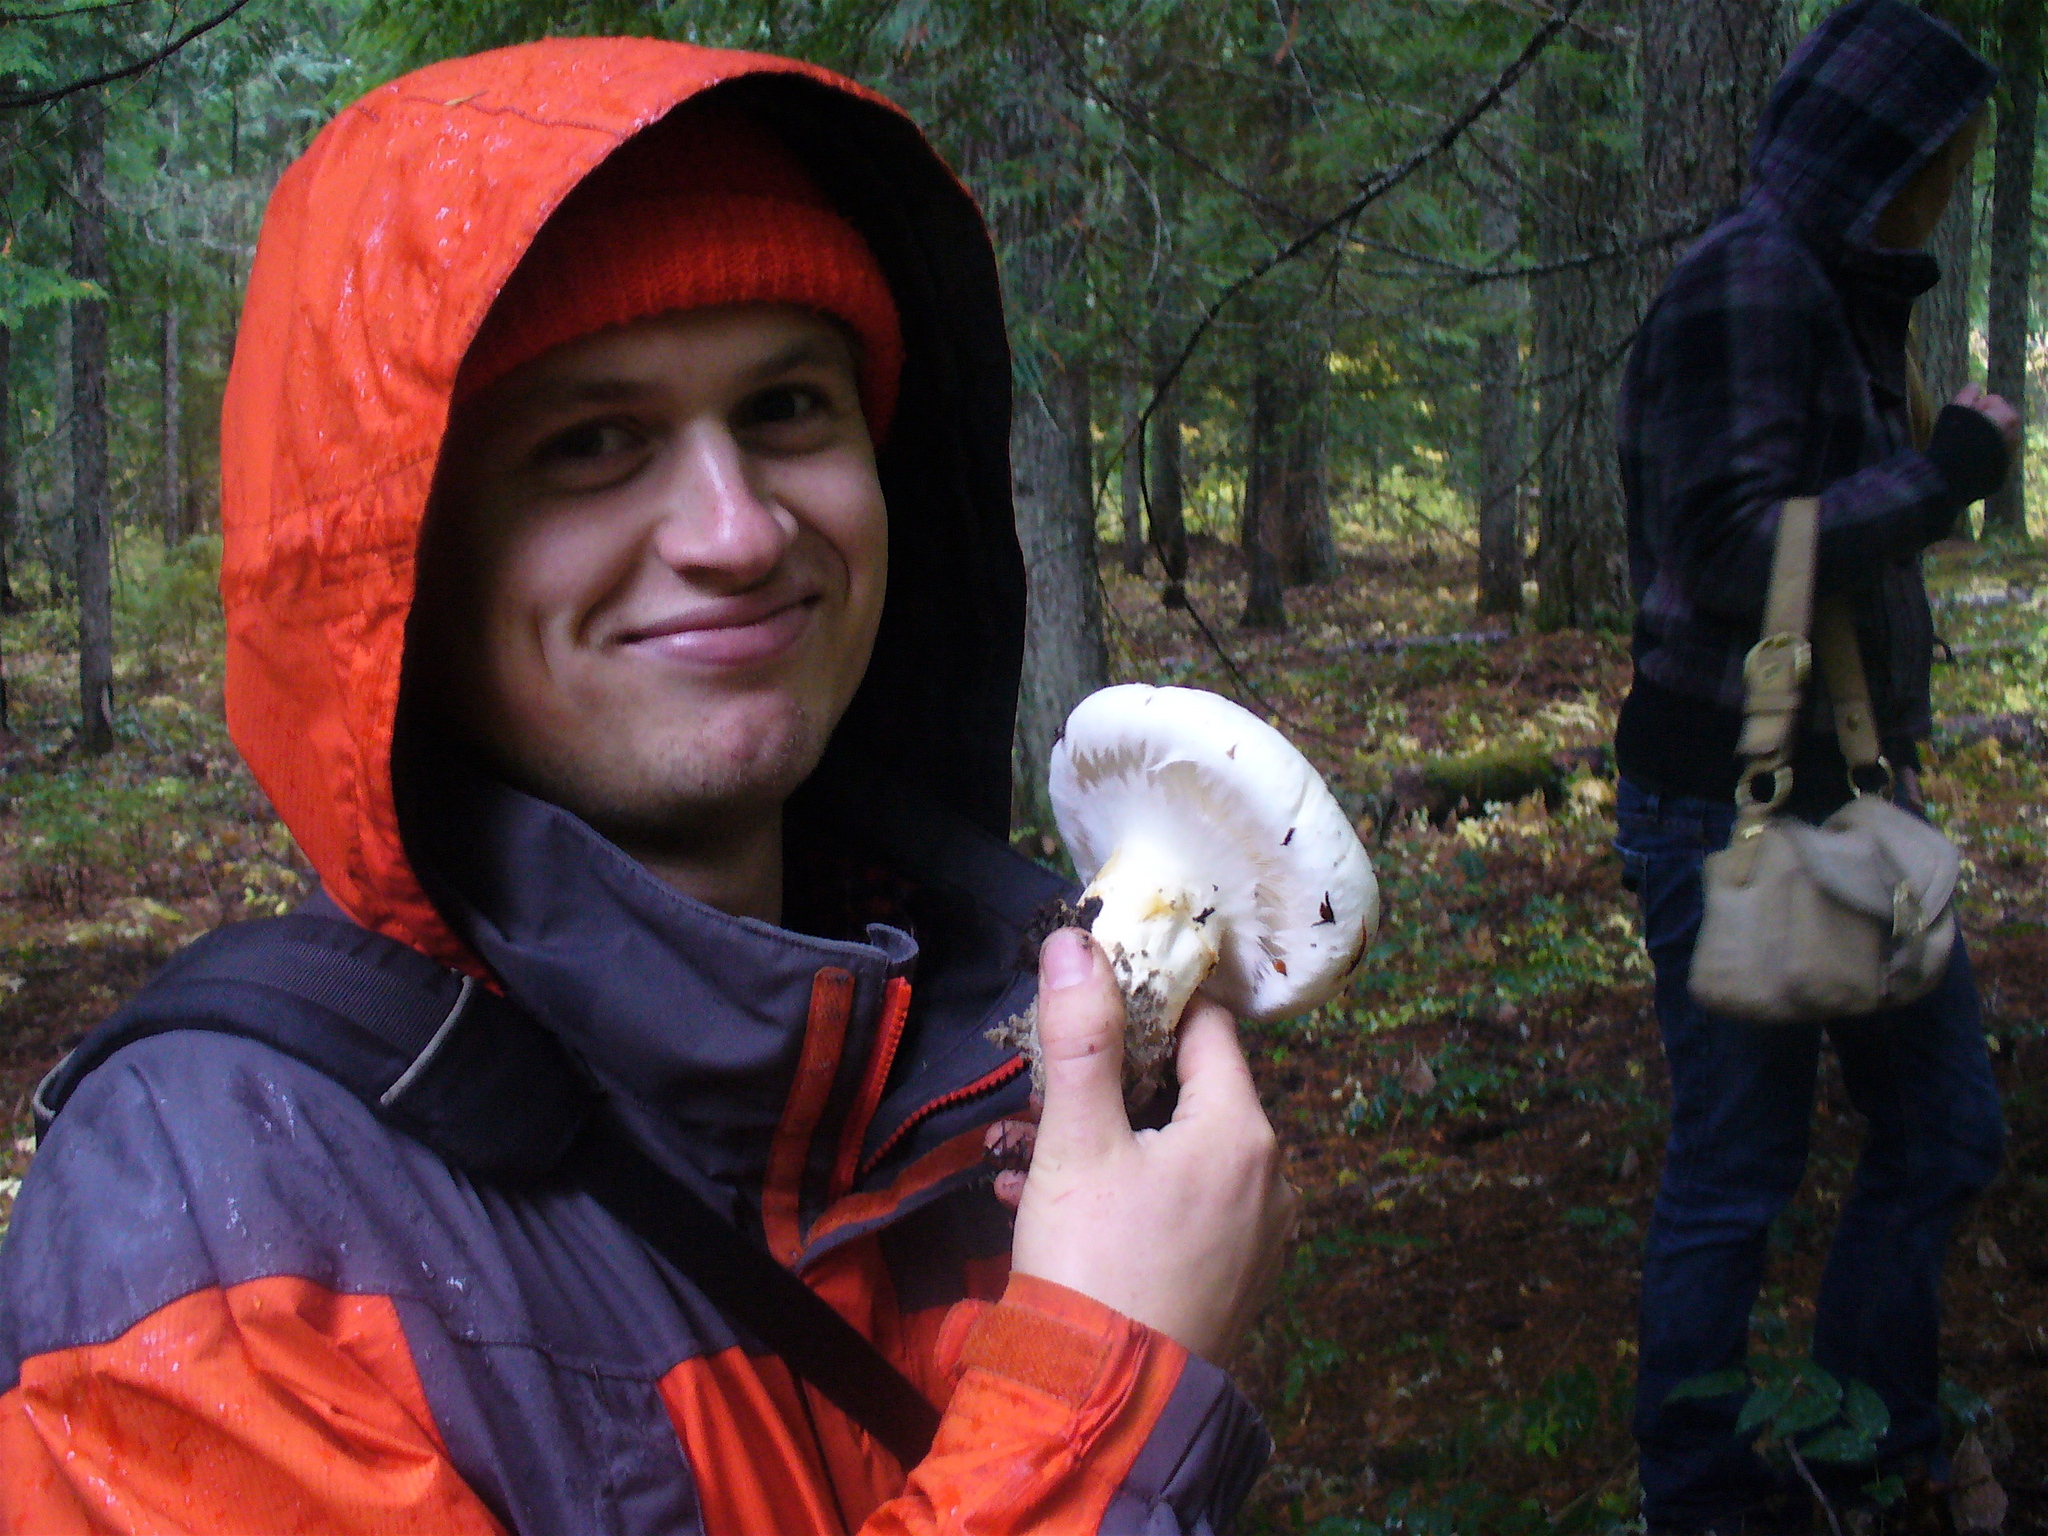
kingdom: Fungi
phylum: Basidiomycota
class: Agaricomycetes
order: Agaricales
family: Tricholomataceae
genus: Tricholoma
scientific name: Tricholoma murrillianum
